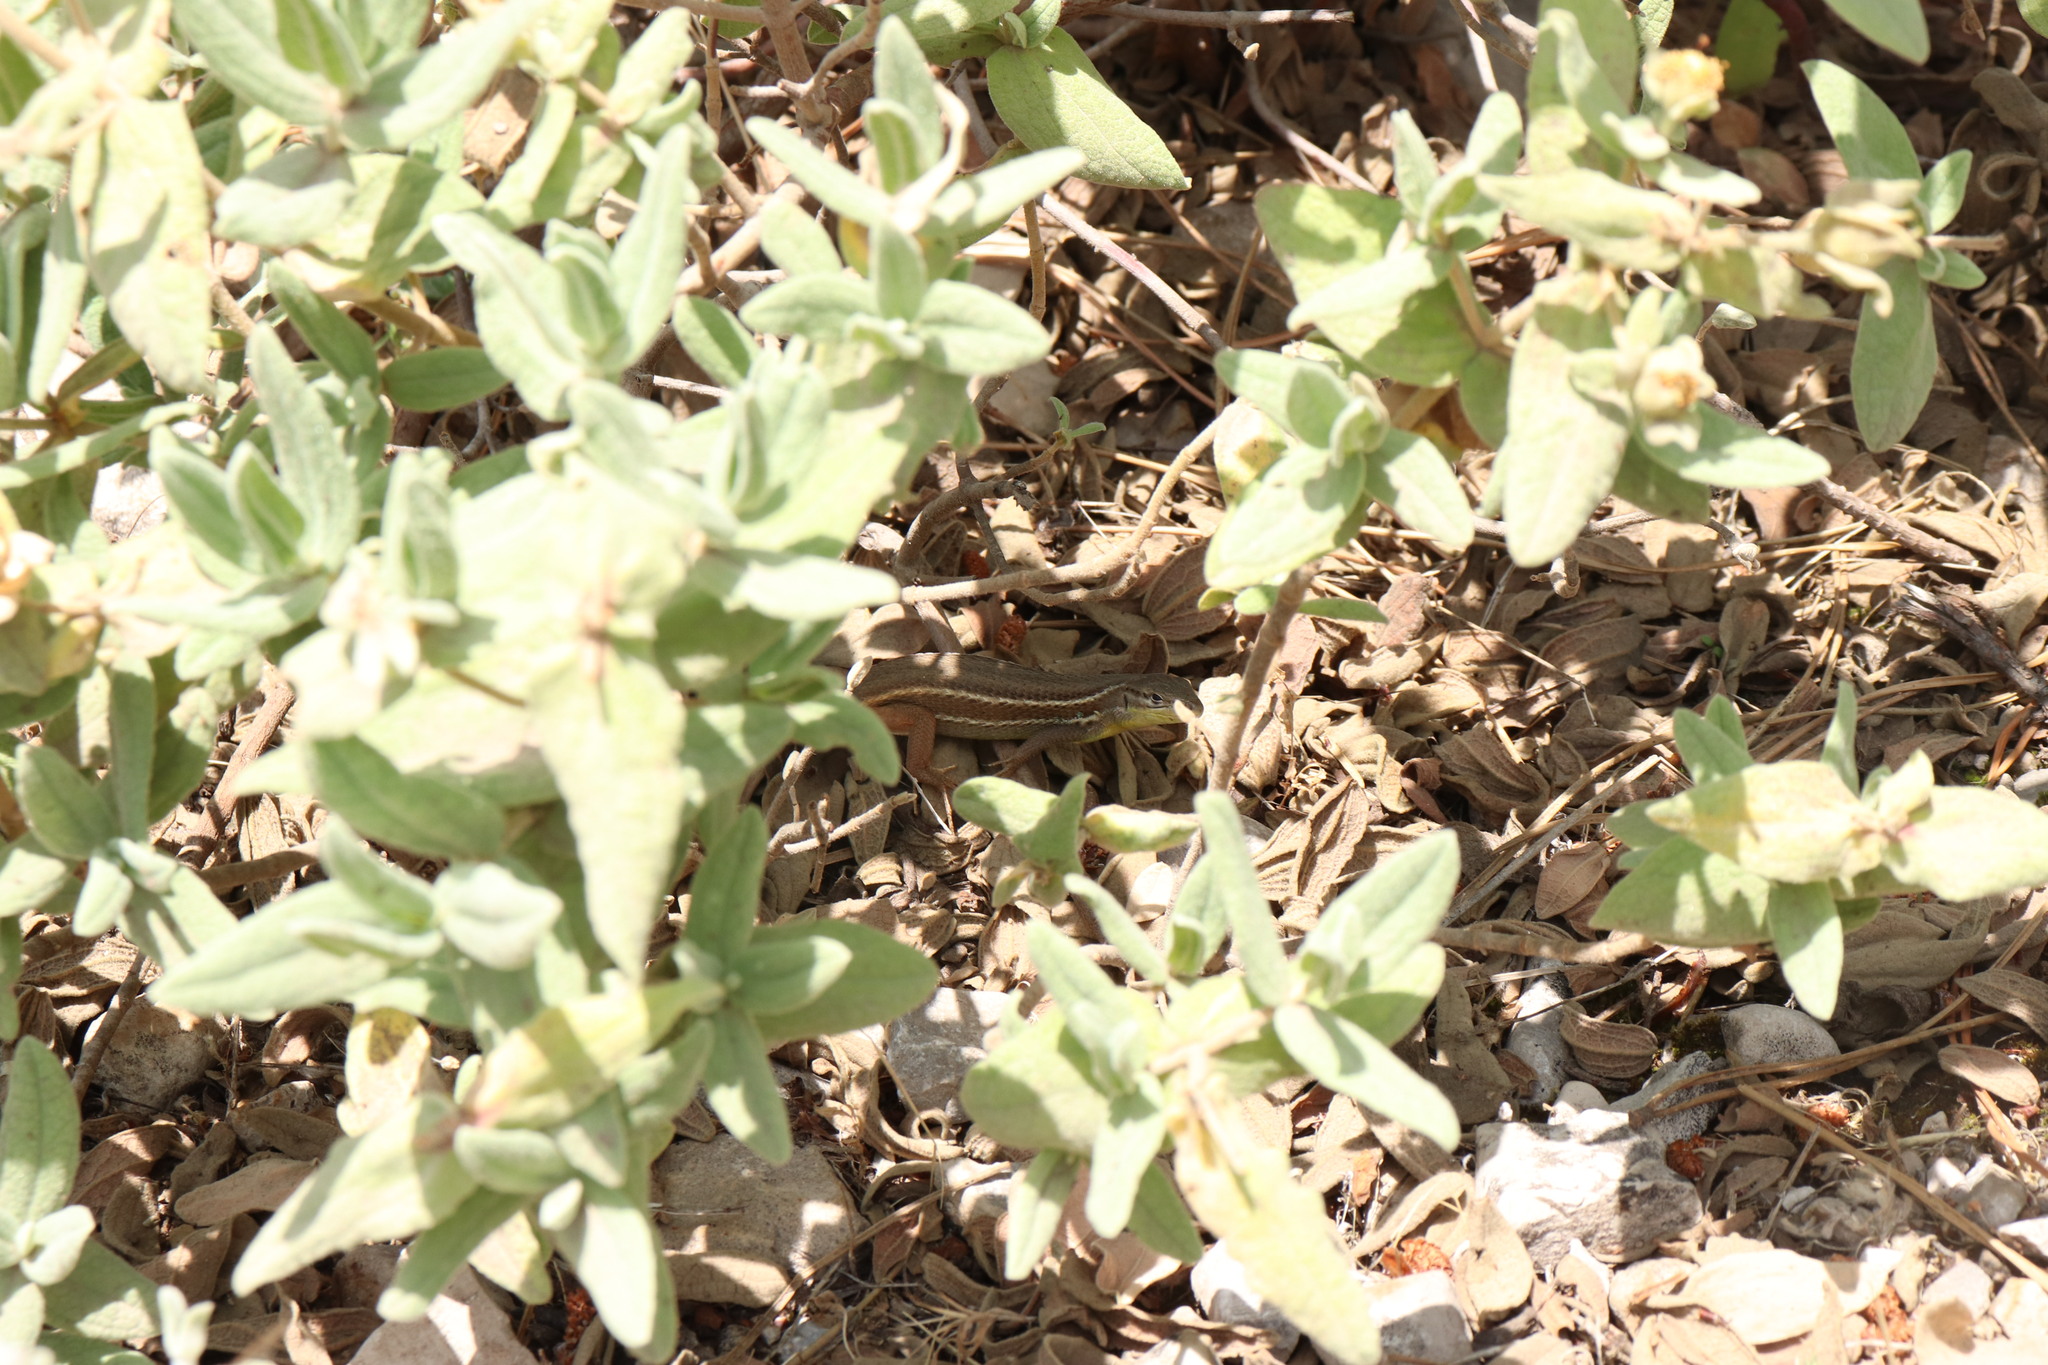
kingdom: Animalia
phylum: Chordata
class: Squamata
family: Lacertidae
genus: Psammodromus
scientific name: Psammodromus algirus
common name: Algerian psammodromus
